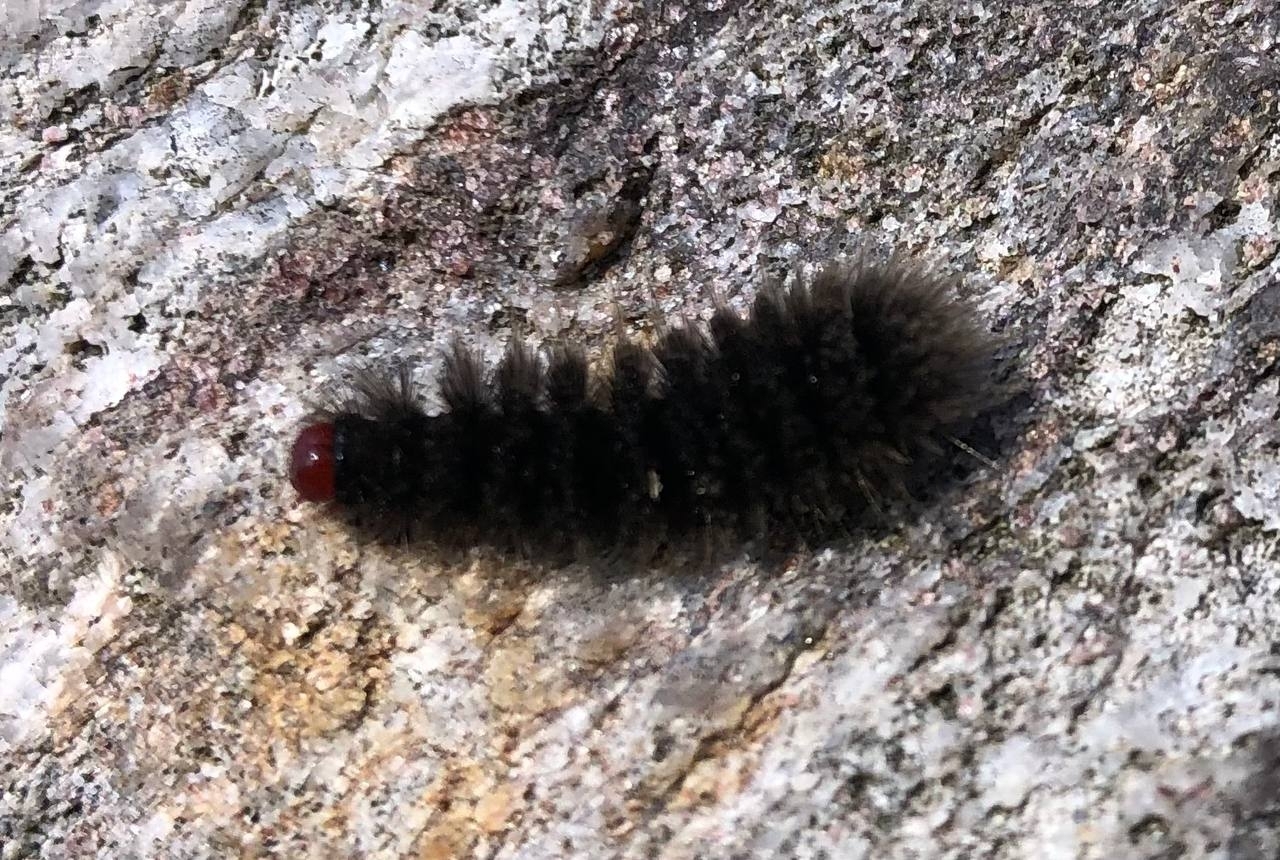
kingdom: Animalia
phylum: Arthropoda
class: Insecta
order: Lepidoptera
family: Erebidae
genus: Amata
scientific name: Amata phegea
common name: Nine-spotted
